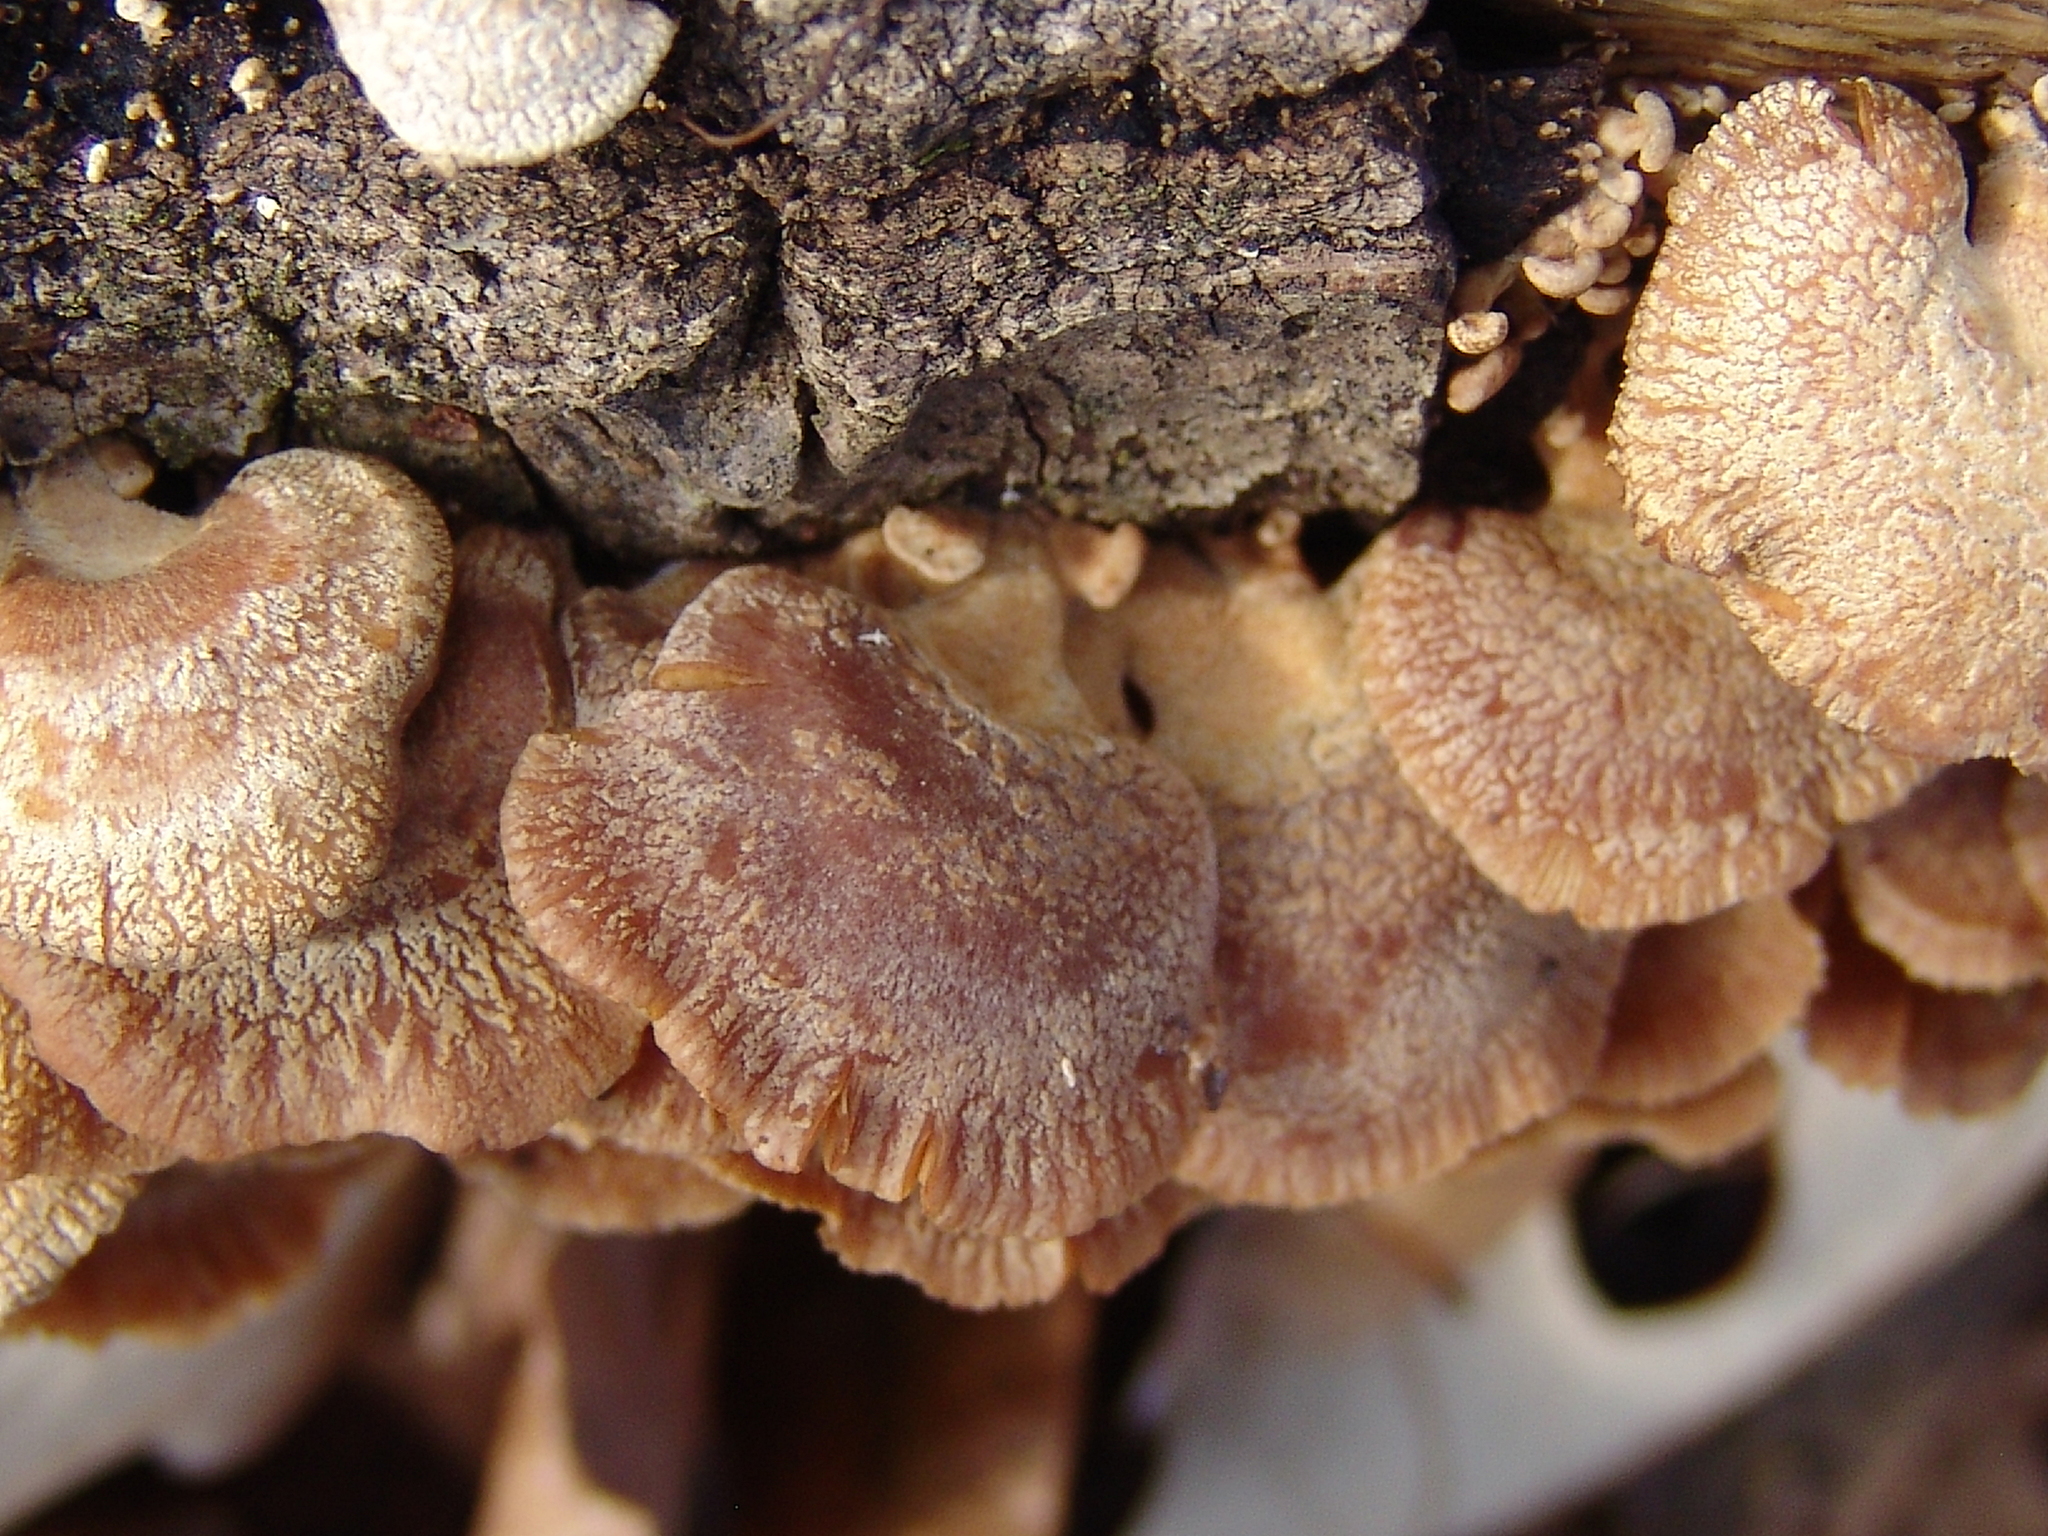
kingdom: Fungi
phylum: Basidiomycota
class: Agaricomycetes
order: Agaricales
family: Mycenaceae
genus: Panellus
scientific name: Panellus stipticus
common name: Bitter oysterling
